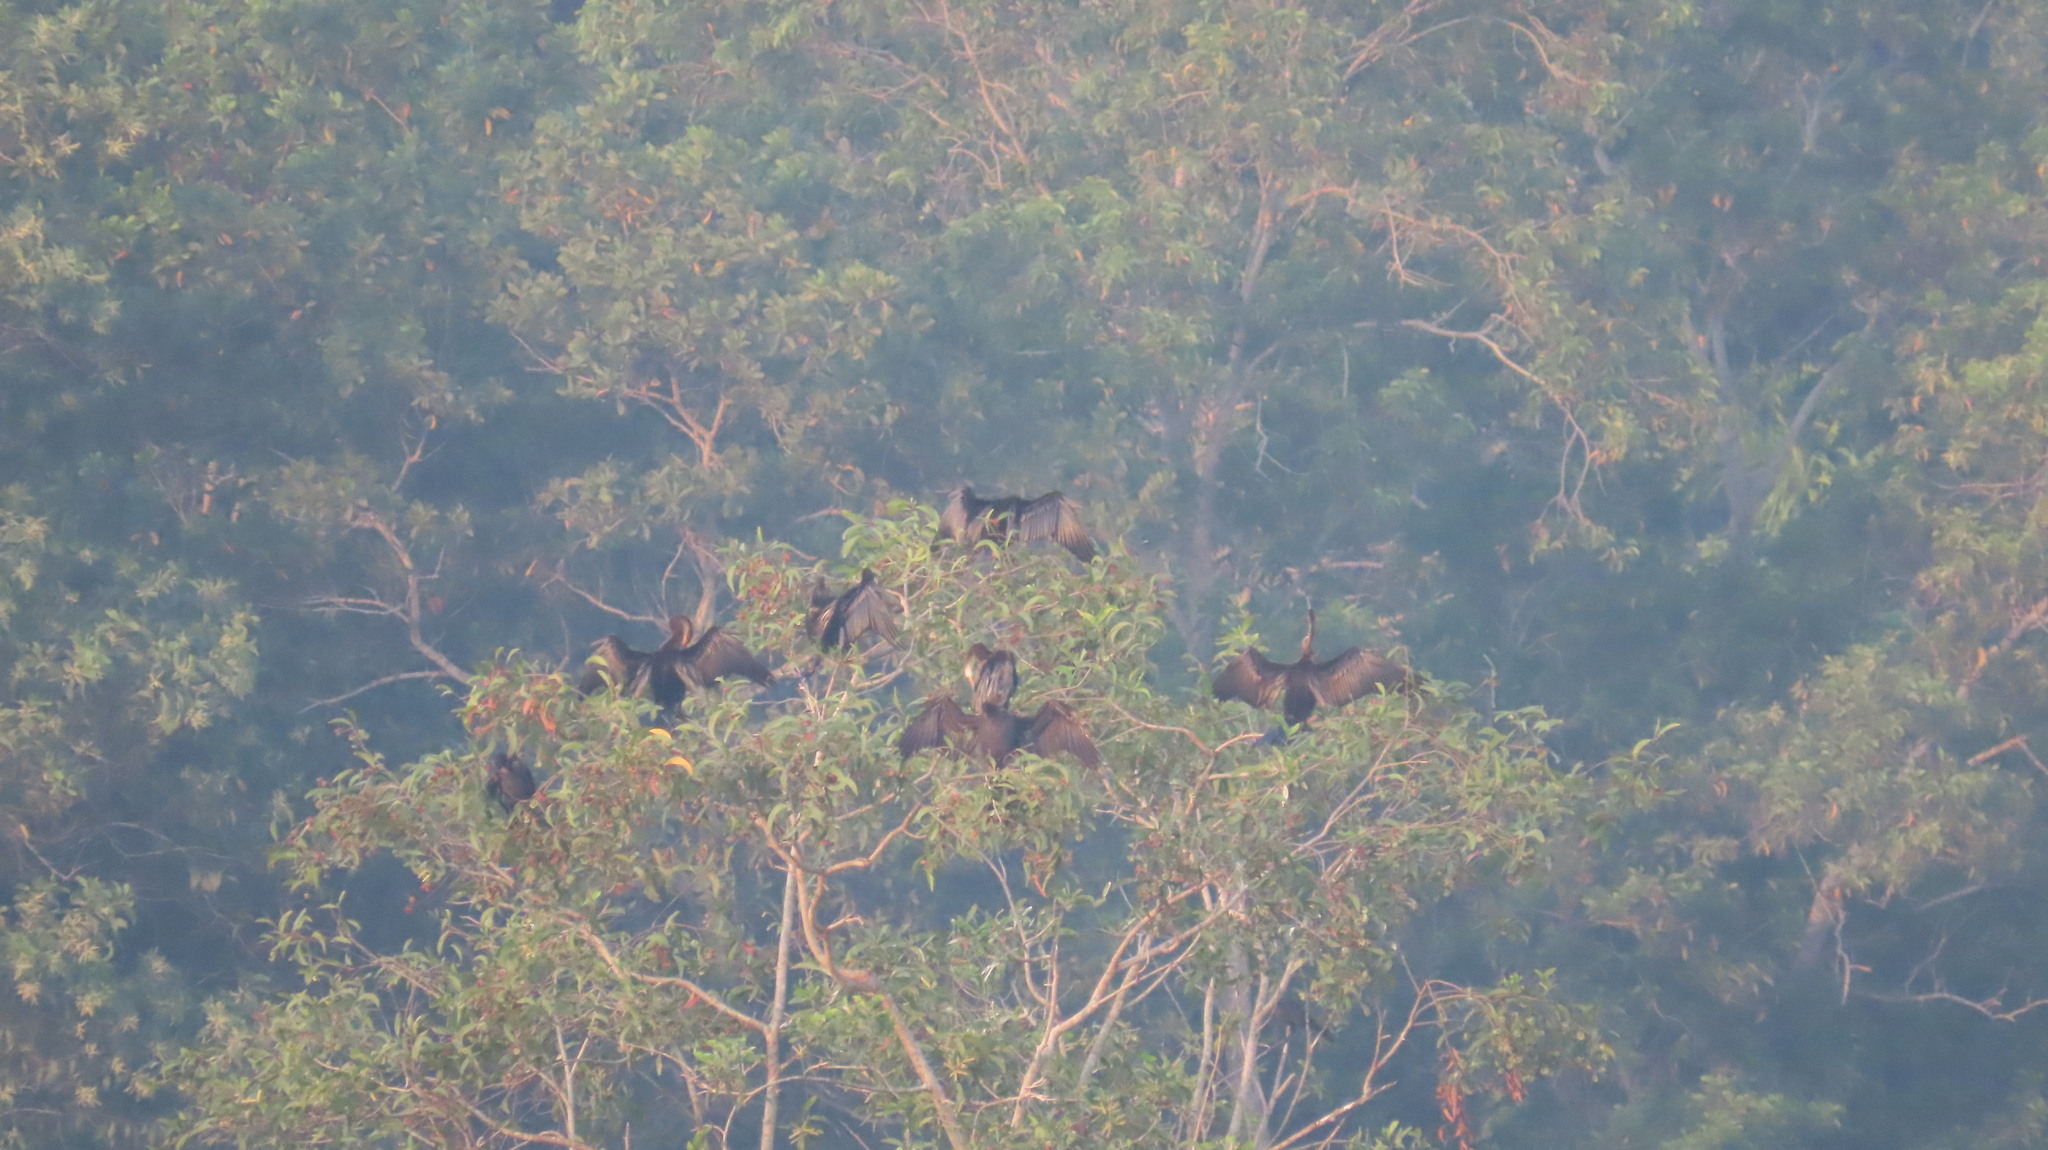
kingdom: Animalia
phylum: Chordata
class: Aves
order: Suliformes
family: Anhingidae
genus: Anhinga
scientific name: Anhinga melanogaster
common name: Oriental darter
